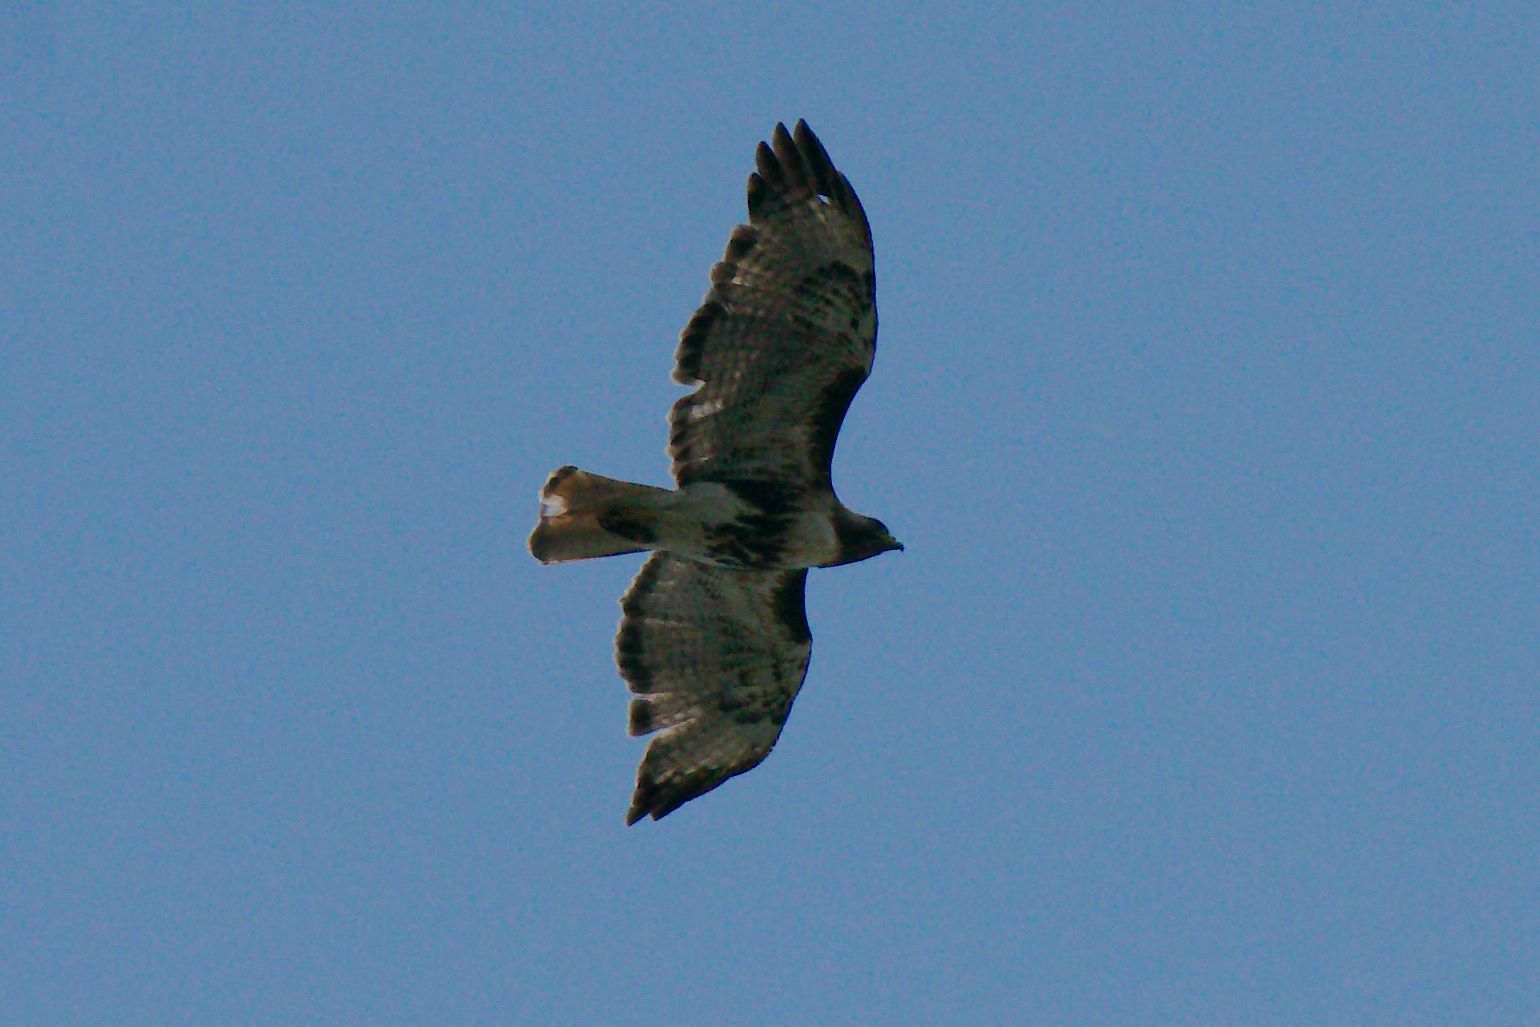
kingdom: Animalia
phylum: Chordata
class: Aves
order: Accipitriformes
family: Accipitridae
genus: Buteo
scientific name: Buteo jamaicensis
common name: Red-tailed hawk
